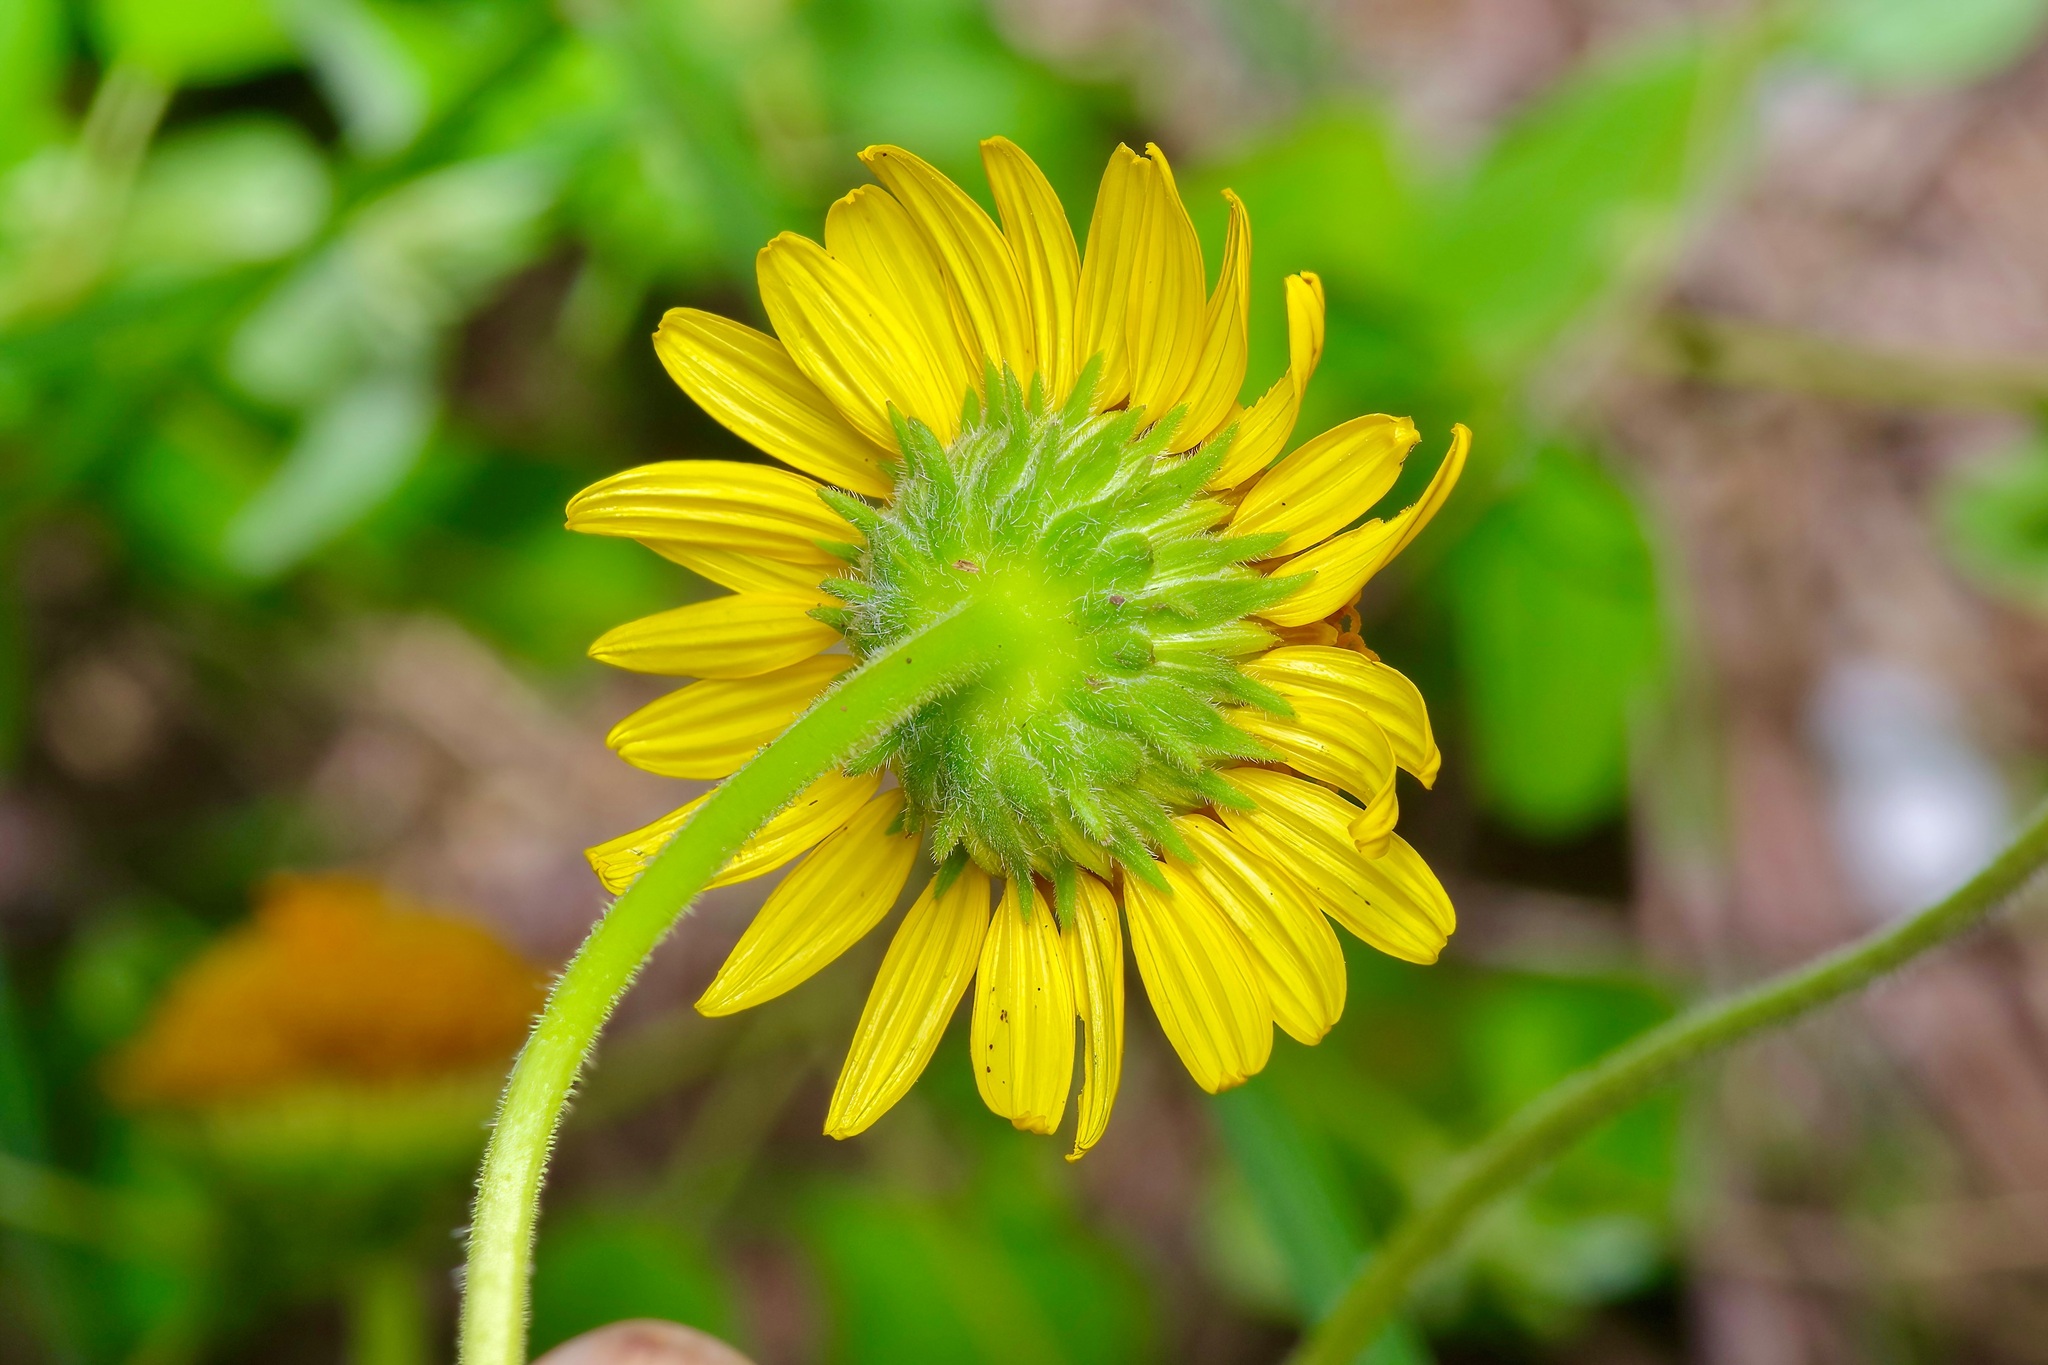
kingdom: Plantae
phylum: Tracheophyta
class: Magnoliopsida
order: Asterales
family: Asteraceae
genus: Simsia
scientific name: Simsia calva
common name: Awnless bush-sunflower
